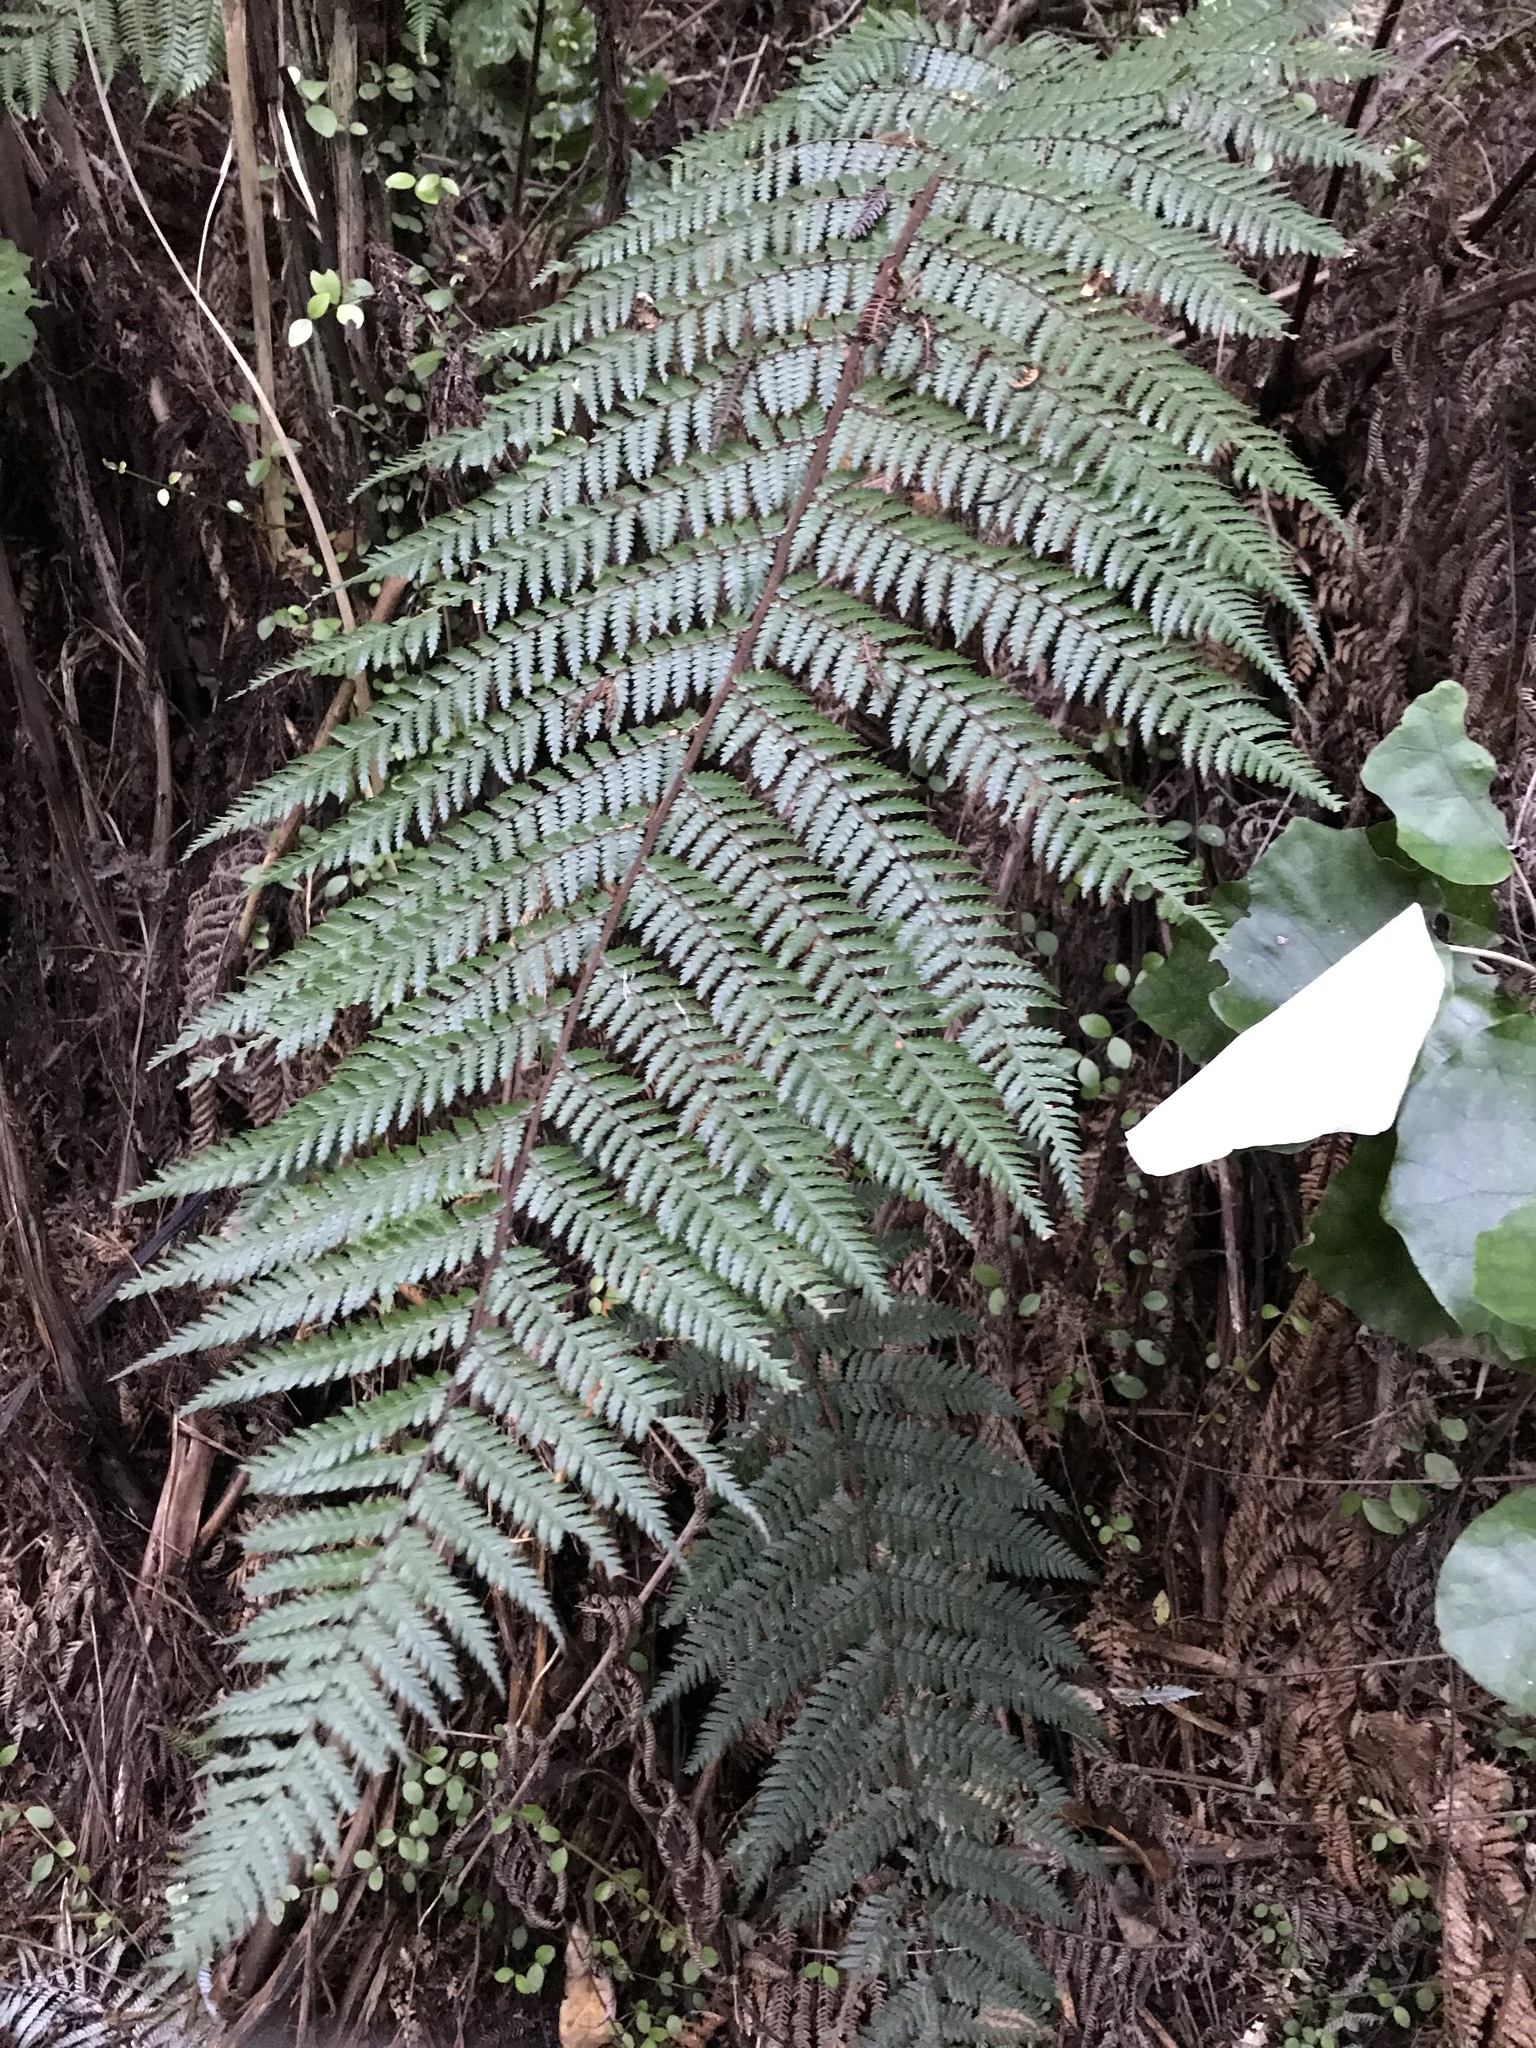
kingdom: Plantae
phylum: Tracheophyta
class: Polypodiopsida
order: Cyatheales
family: Dicksoniaceae
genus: Dicksonia
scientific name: Dicksonia squarrosa
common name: Hard treefern
